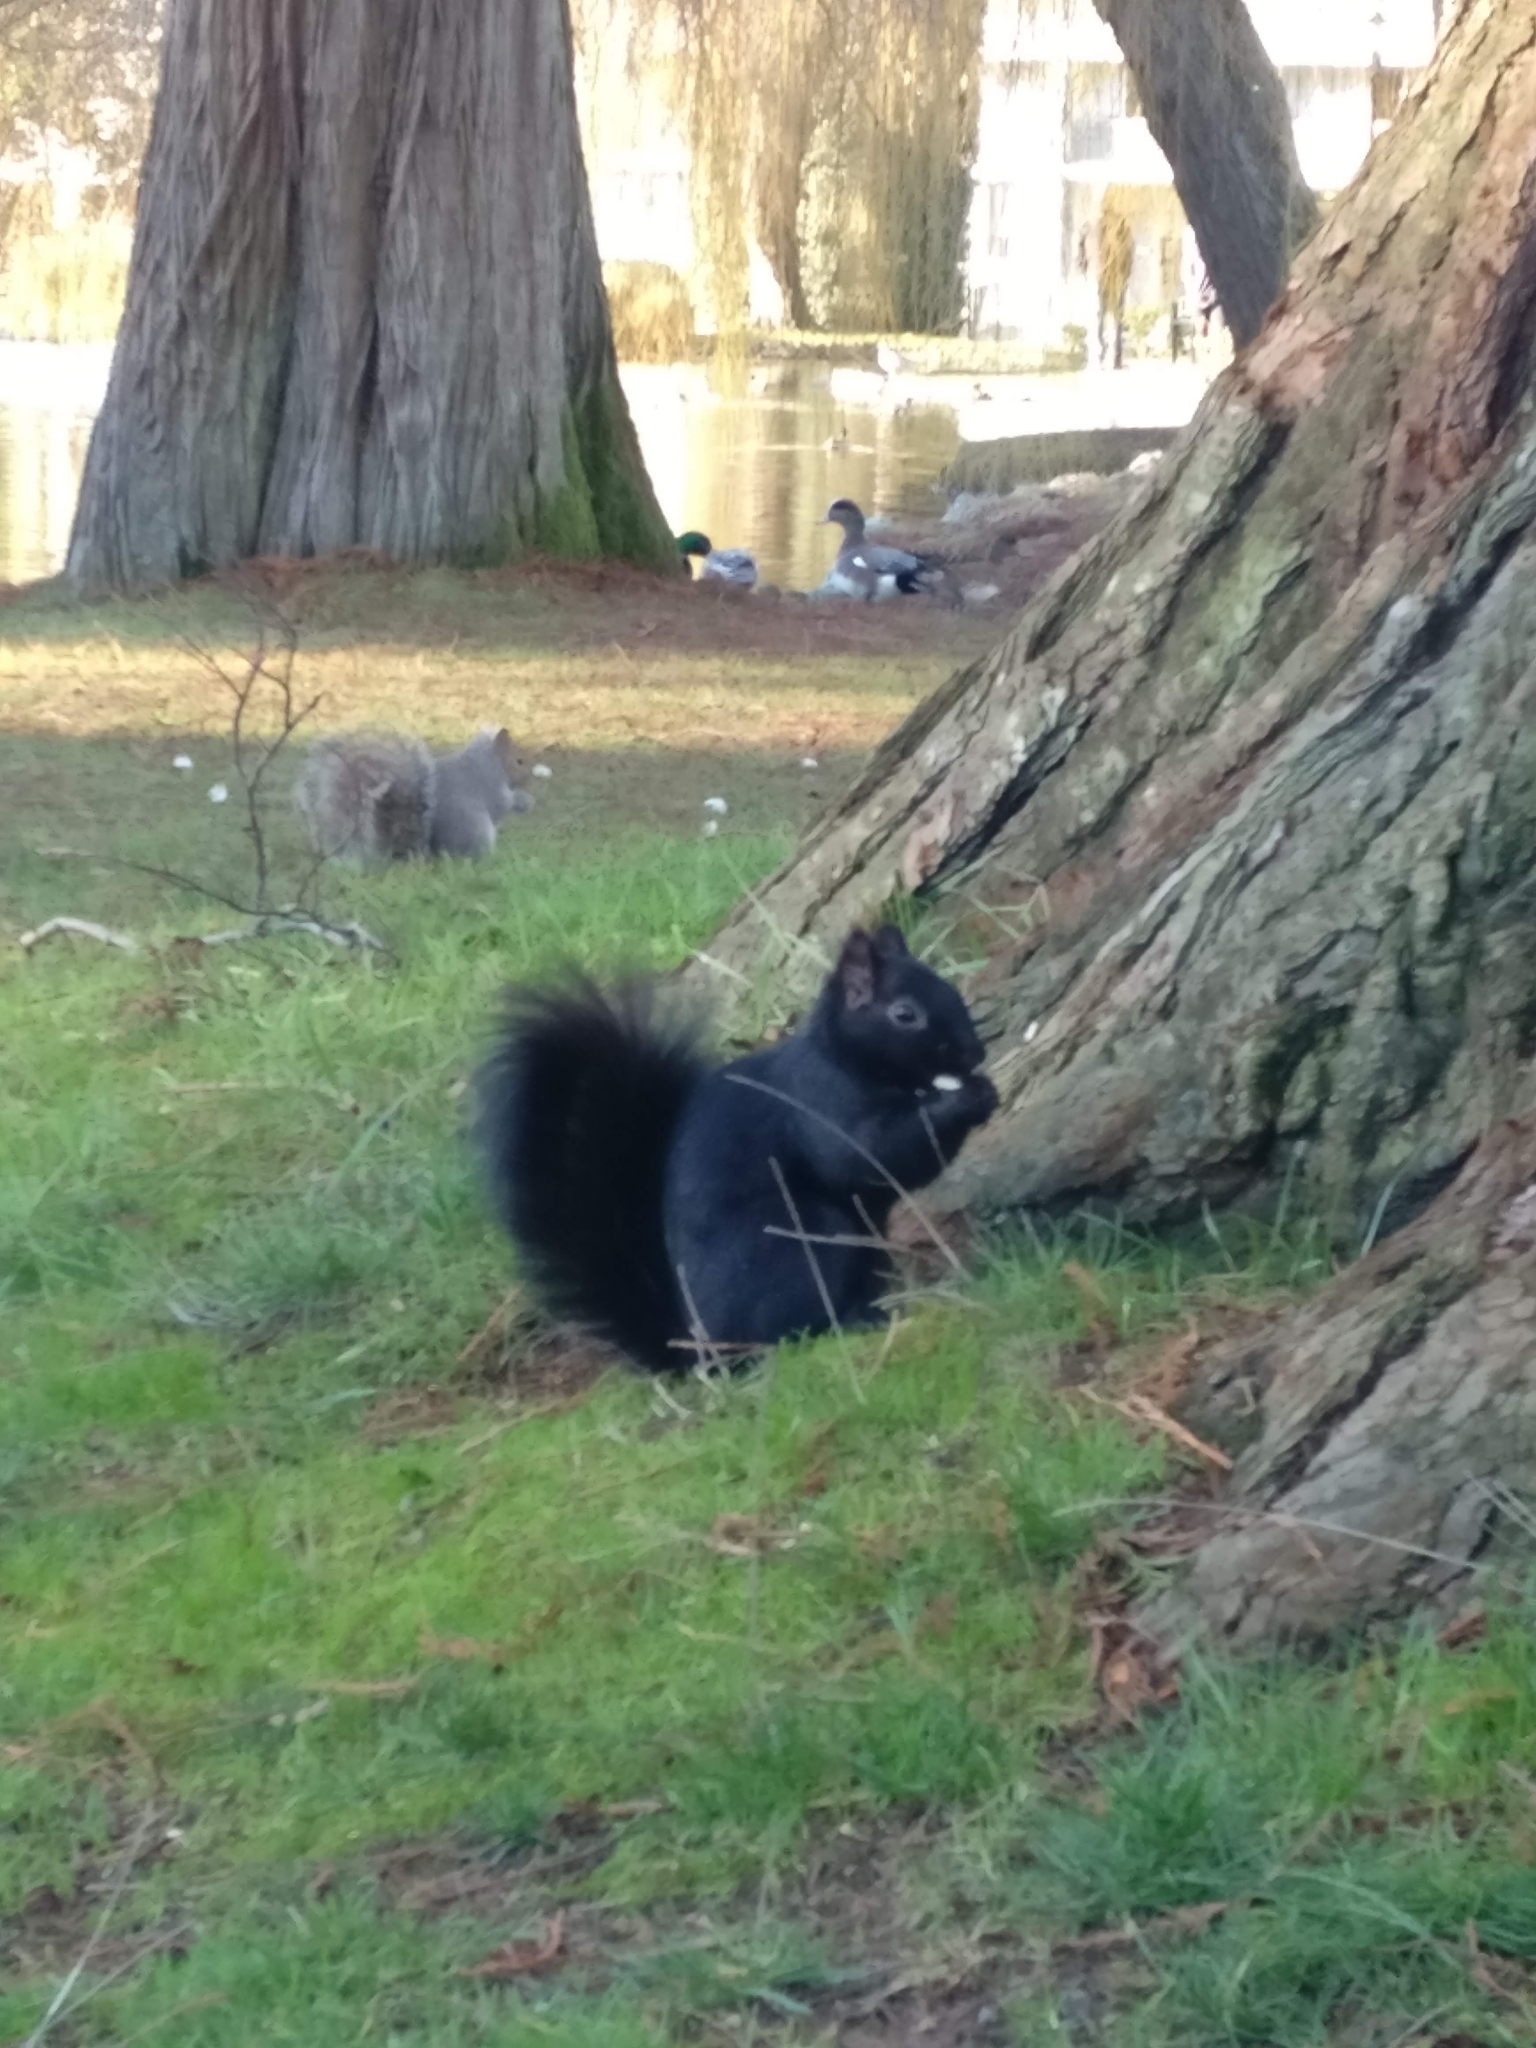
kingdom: Animalia
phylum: Chordata
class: Mammalia
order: Rodentia
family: Sciuridae
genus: Sciurus
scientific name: Sciurus carolinensis
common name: Eastern gray squirrel
